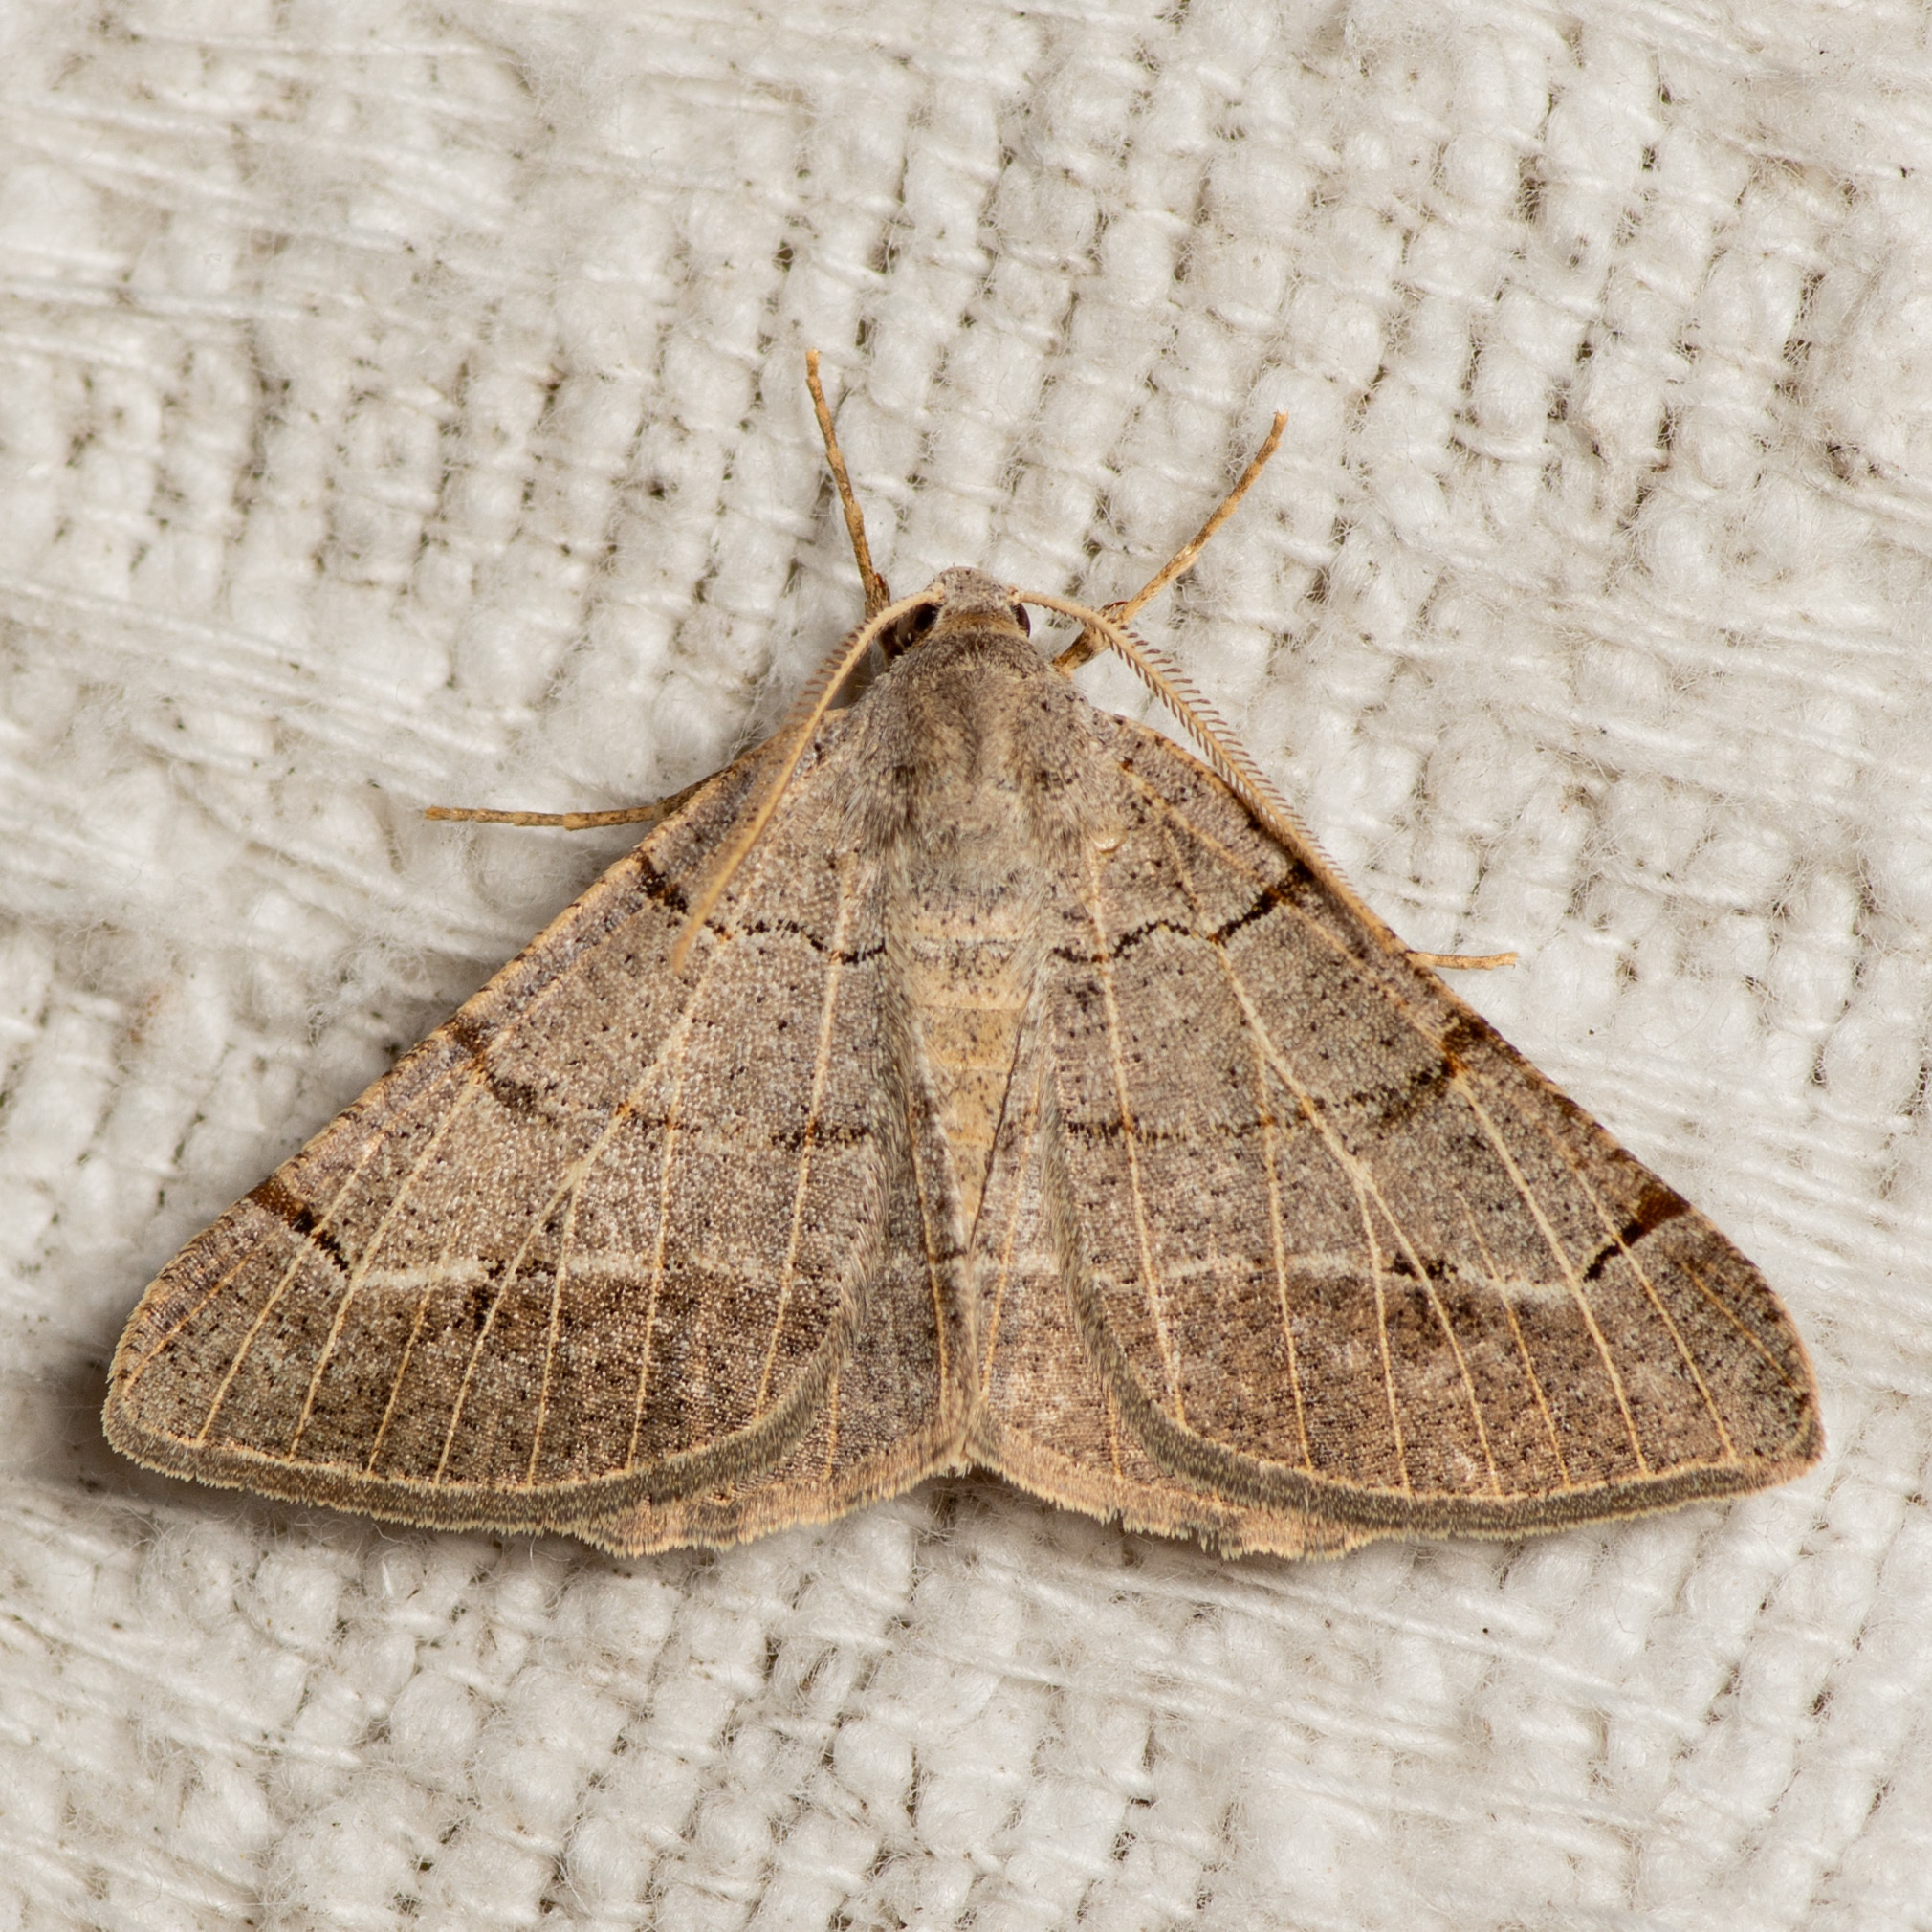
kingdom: Animalia
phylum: Arthropoda
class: Insecta
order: Lepidoptera
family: Geometridae
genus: Isturgia
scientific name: Isturgia dislocaria
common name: Pale-viened enconista
